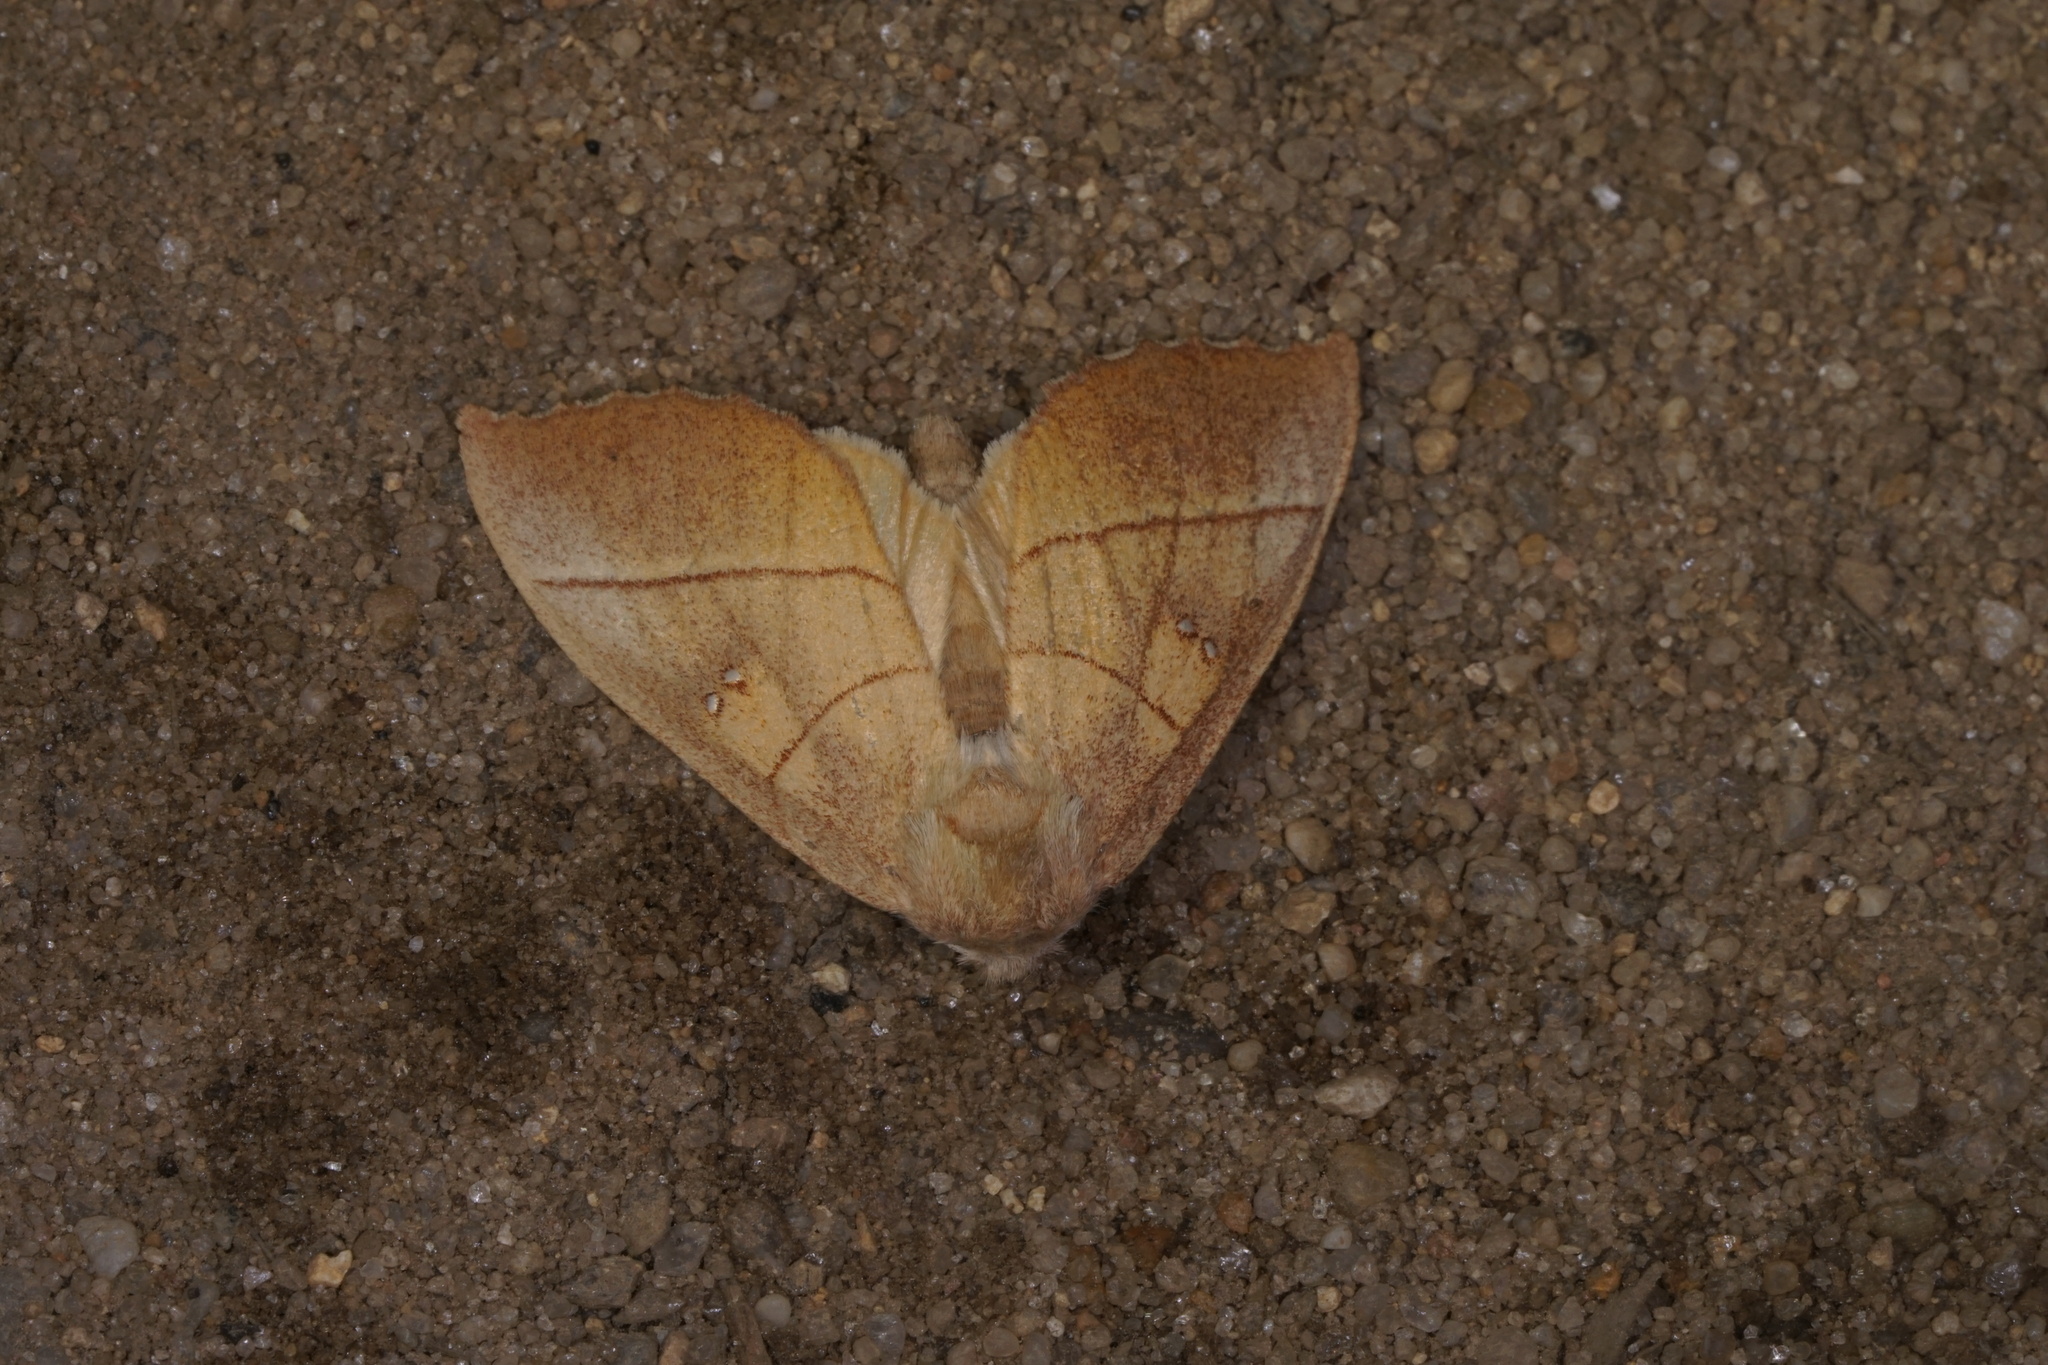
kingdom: Animalia
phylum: Arthropoda
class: Insecta
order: Lepidoptera
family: Notodontidae
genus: Nadata
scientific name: Nadata gibbosa
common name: White-dotted prominent
